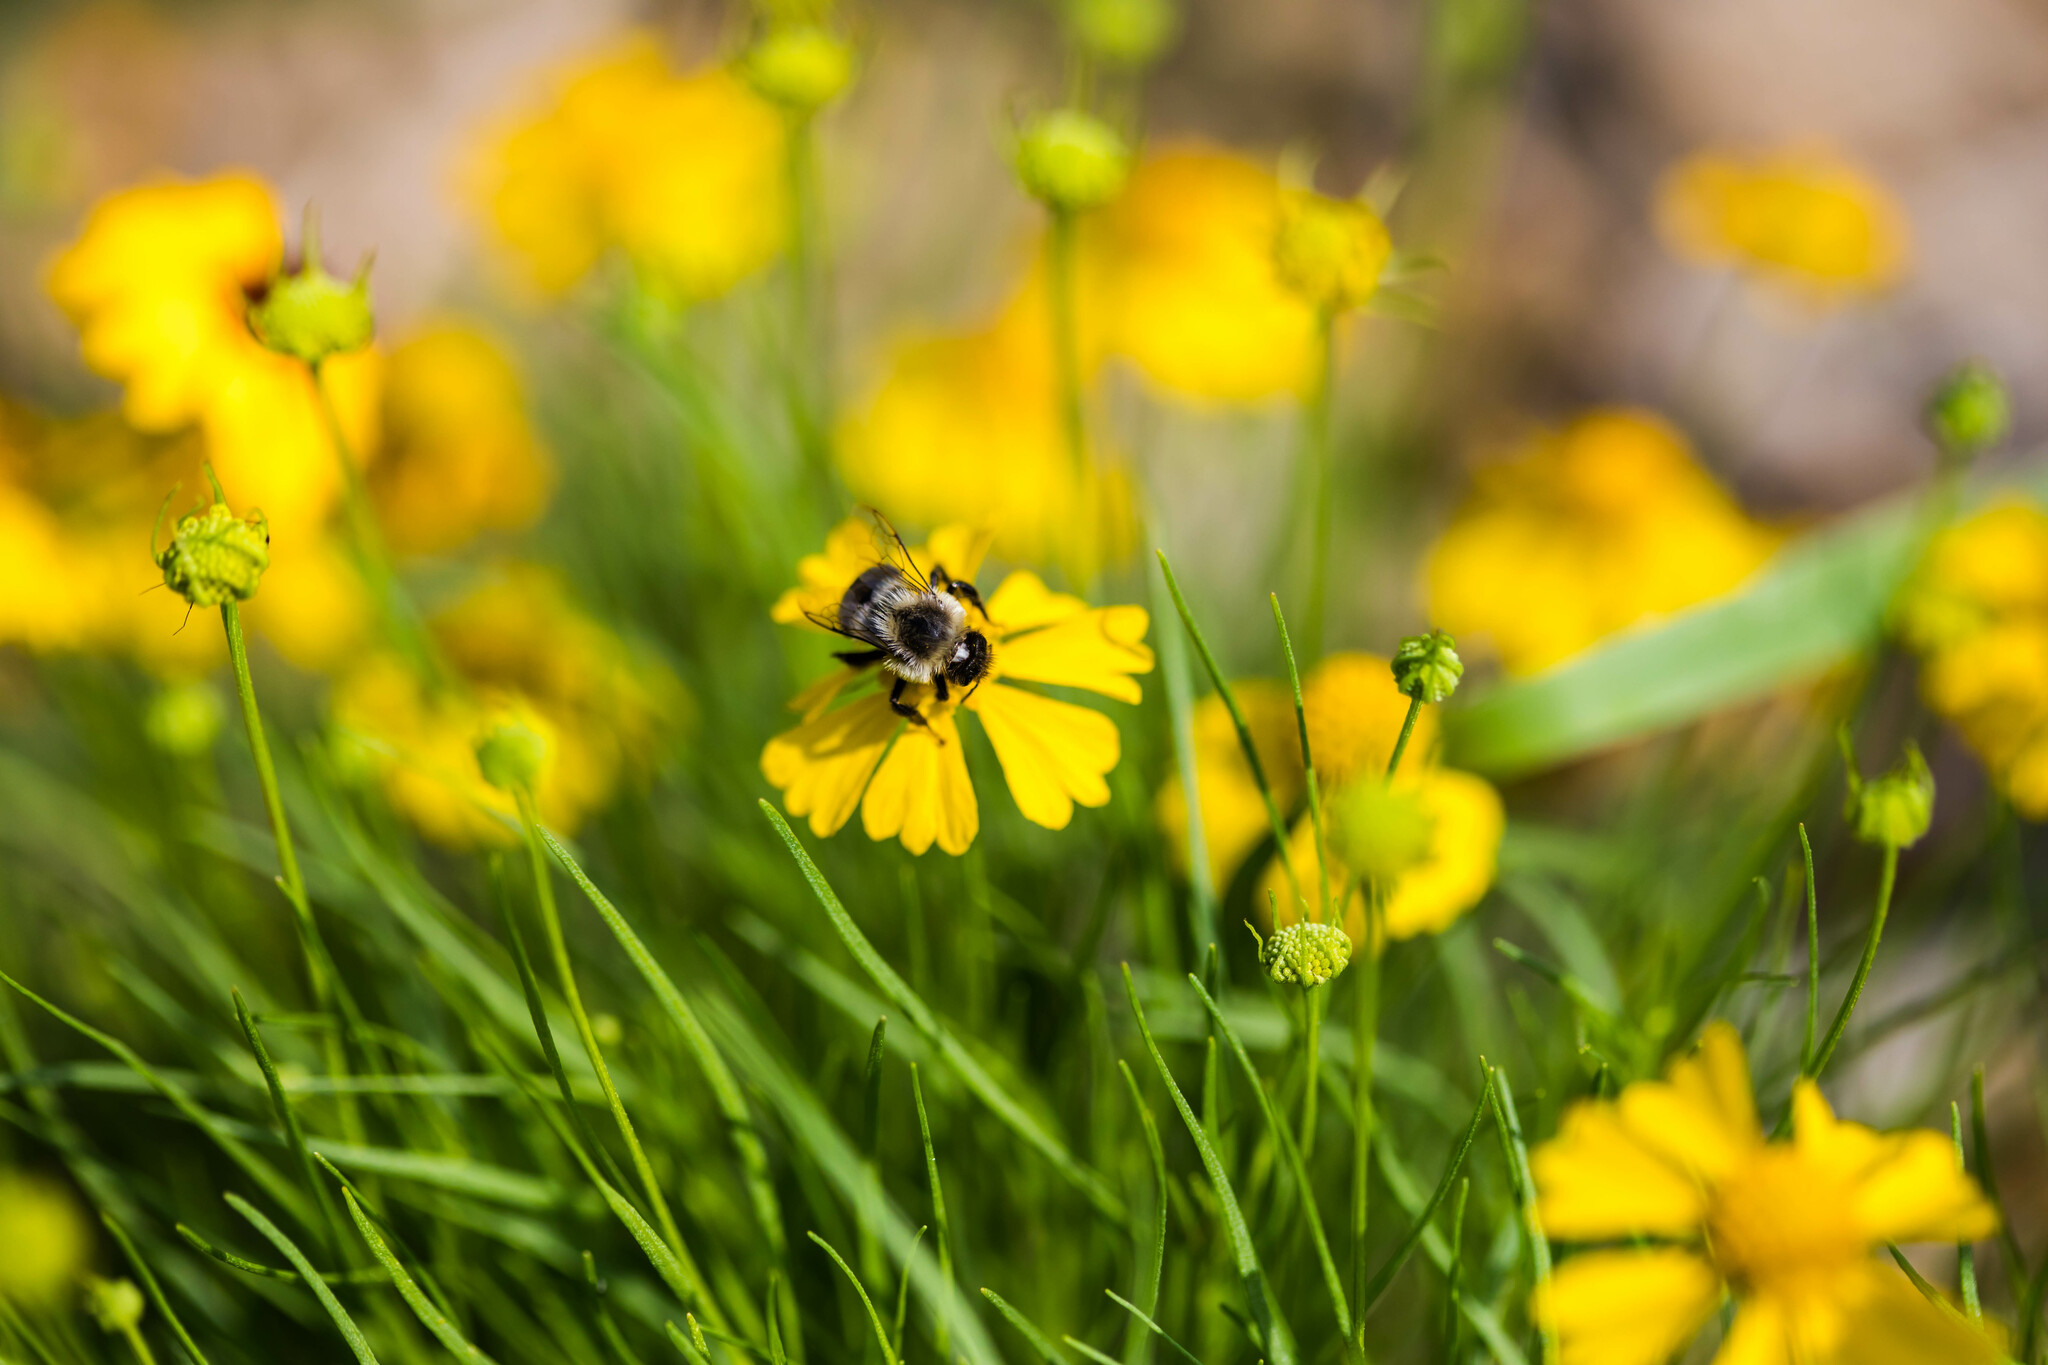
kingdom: Animalia
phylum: Arthropoda
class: Insecta
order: Hymenoptera
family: Apidae
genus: Bombus
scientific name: Bombus impatiens
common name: Common eastern bumble bee
